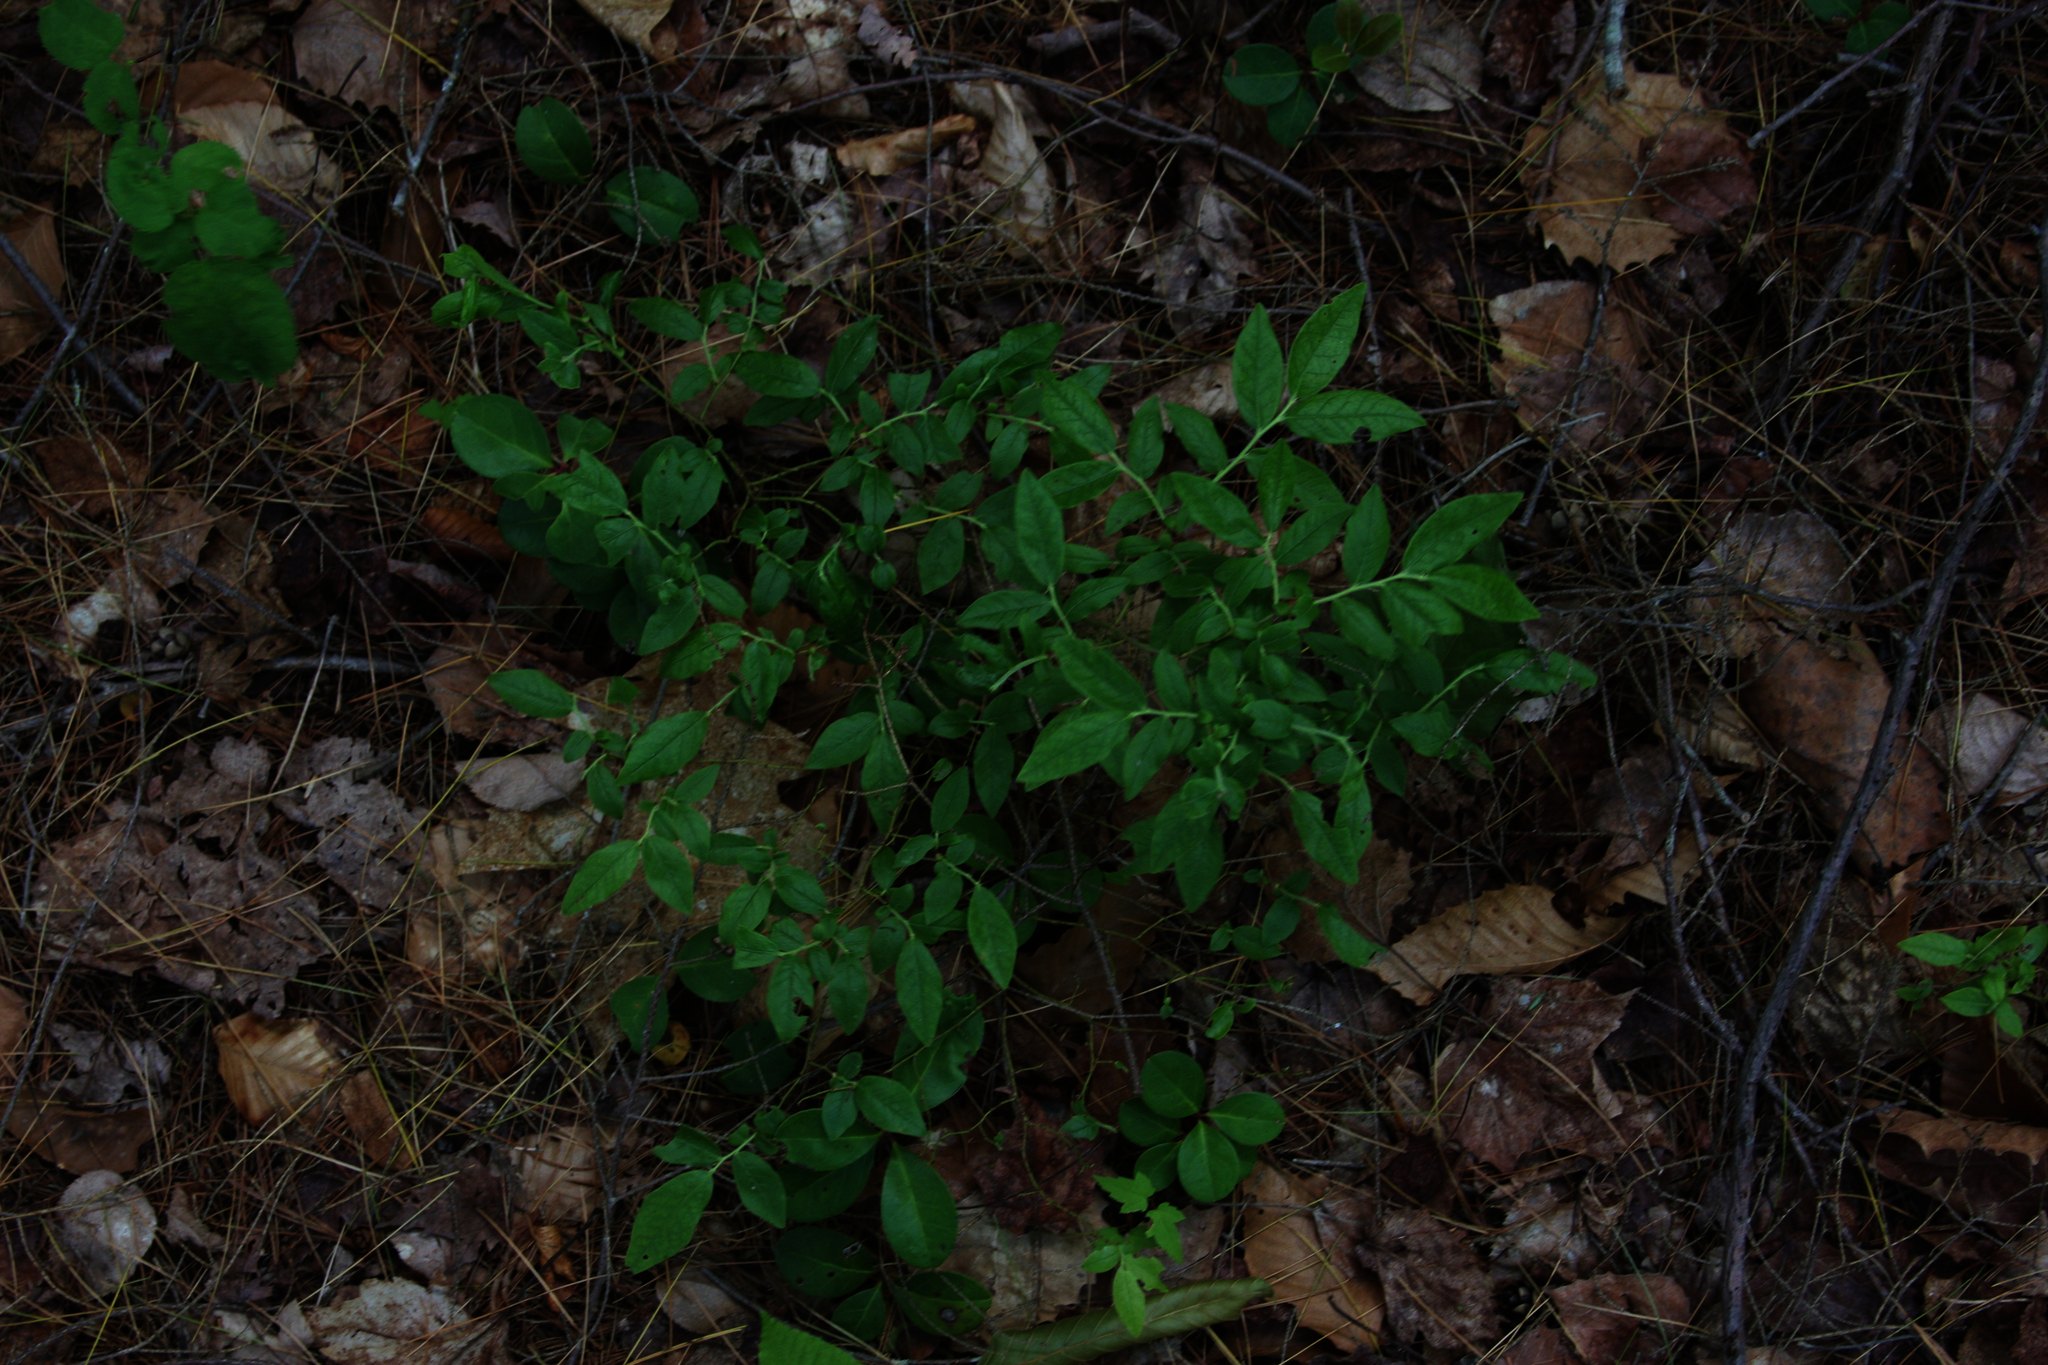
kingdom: Plantae
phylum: Tracheophyta
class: Magnoliopsida
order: Ericales
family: Ericaceae
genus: Gaultheria
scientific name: Gaultheria procumbens
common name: Checkerberry
